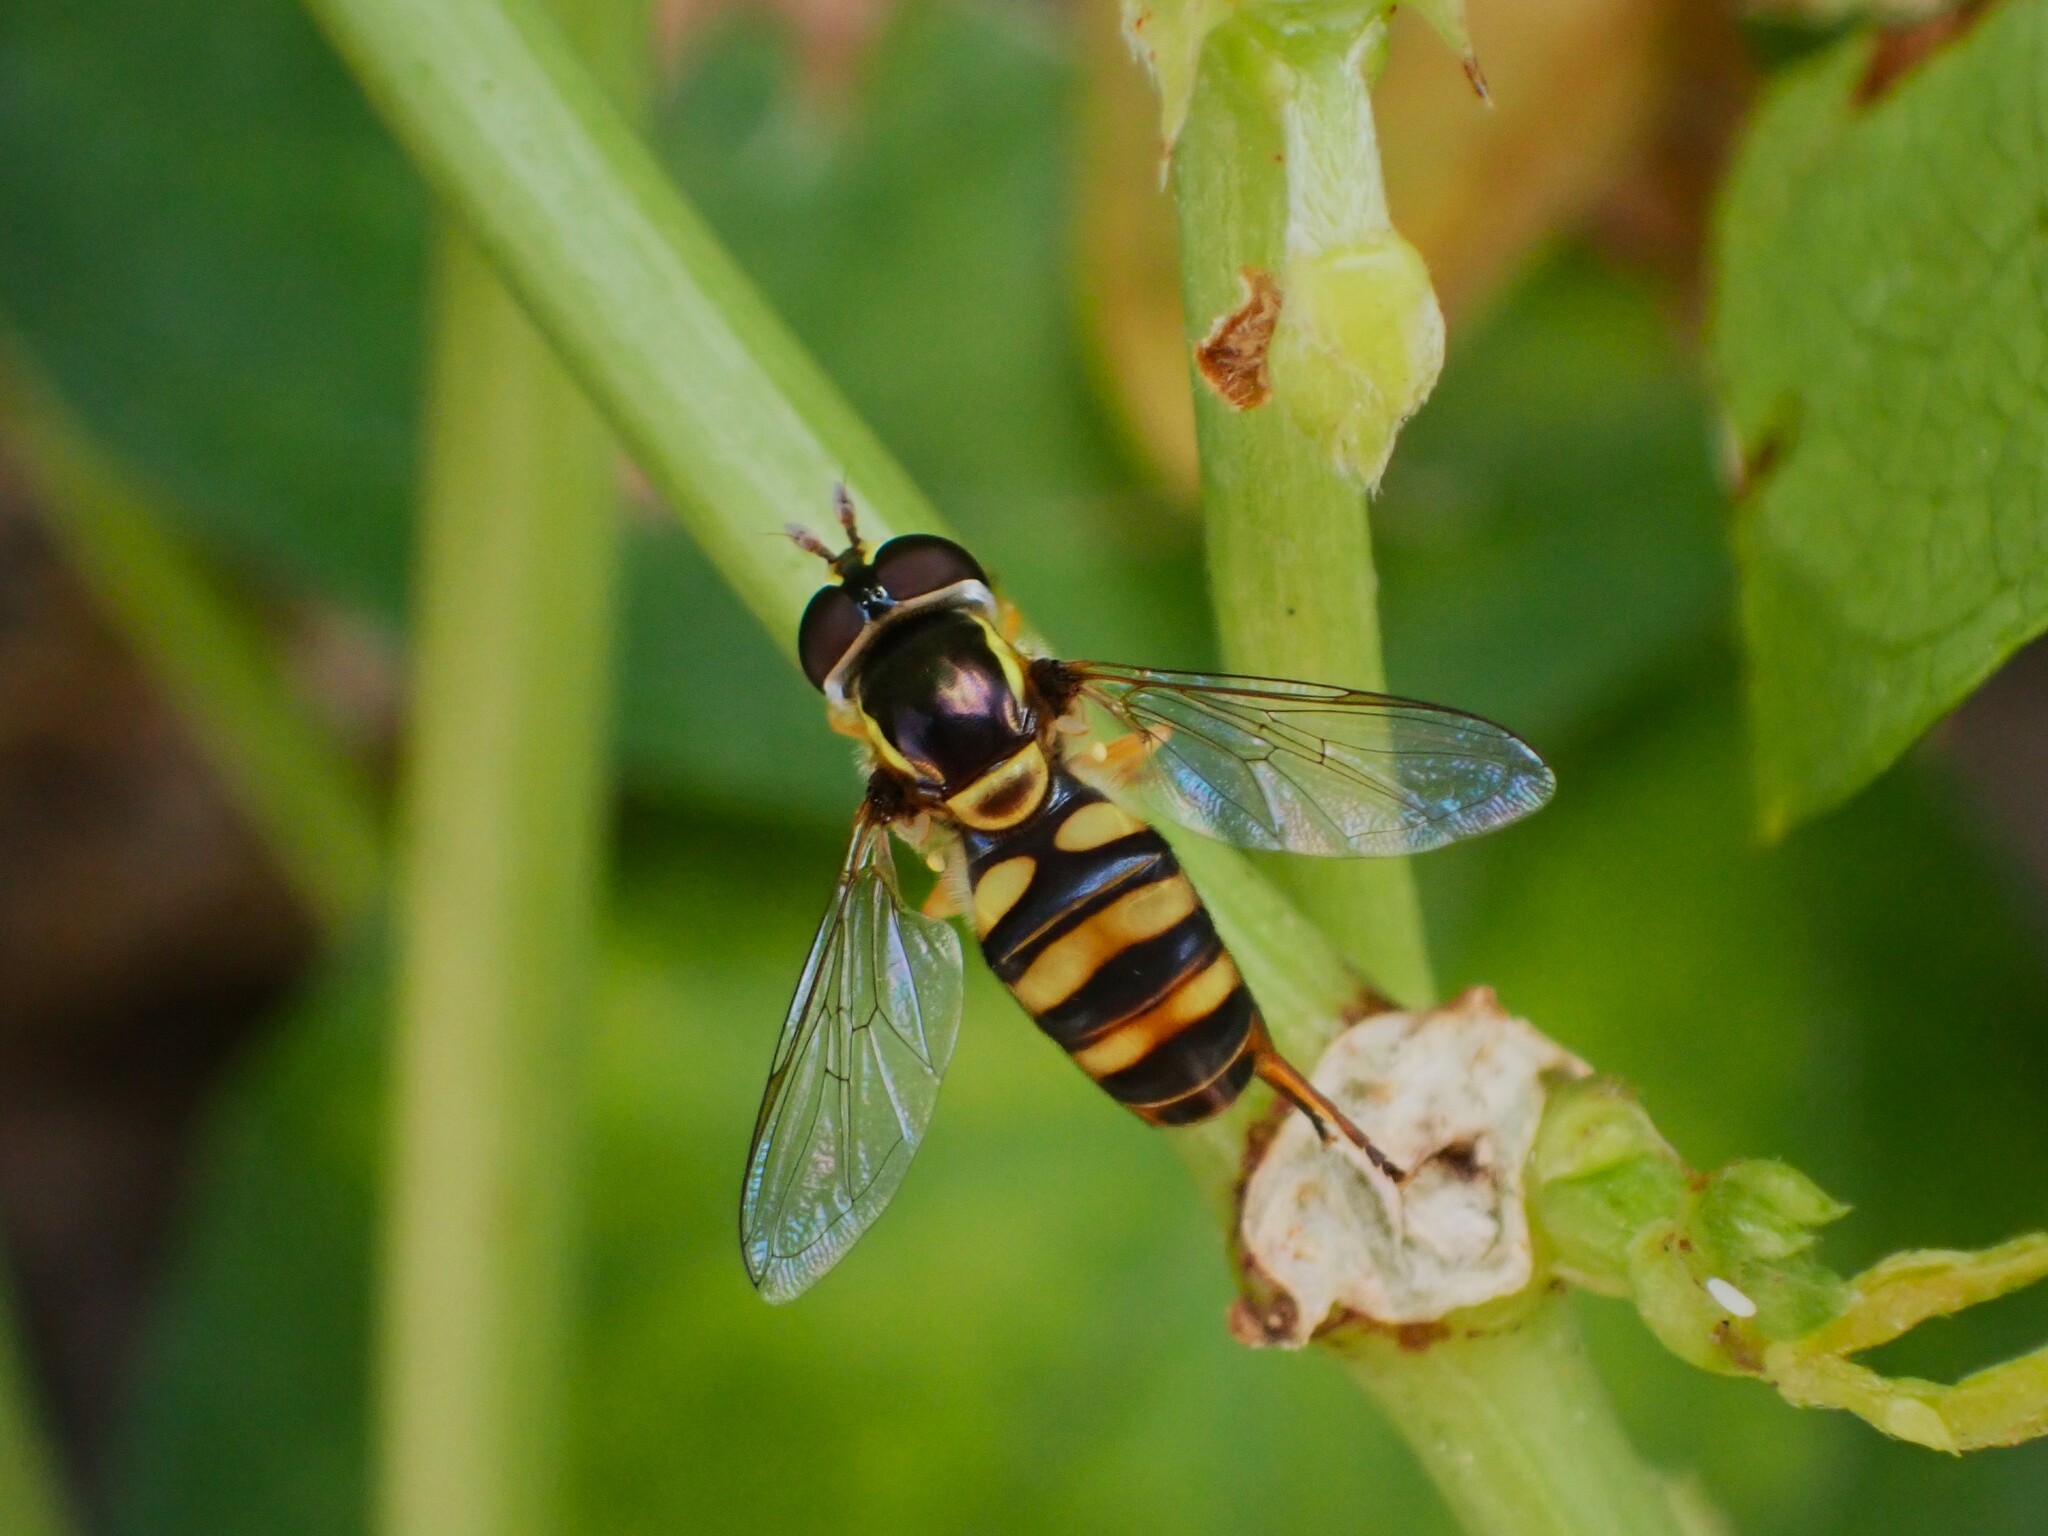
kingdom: Animalia
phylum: Arthropoda
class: Insecta
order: Diptera
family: Syrphidae
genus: Ischiodon
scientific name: Ischiodon scutellaris
